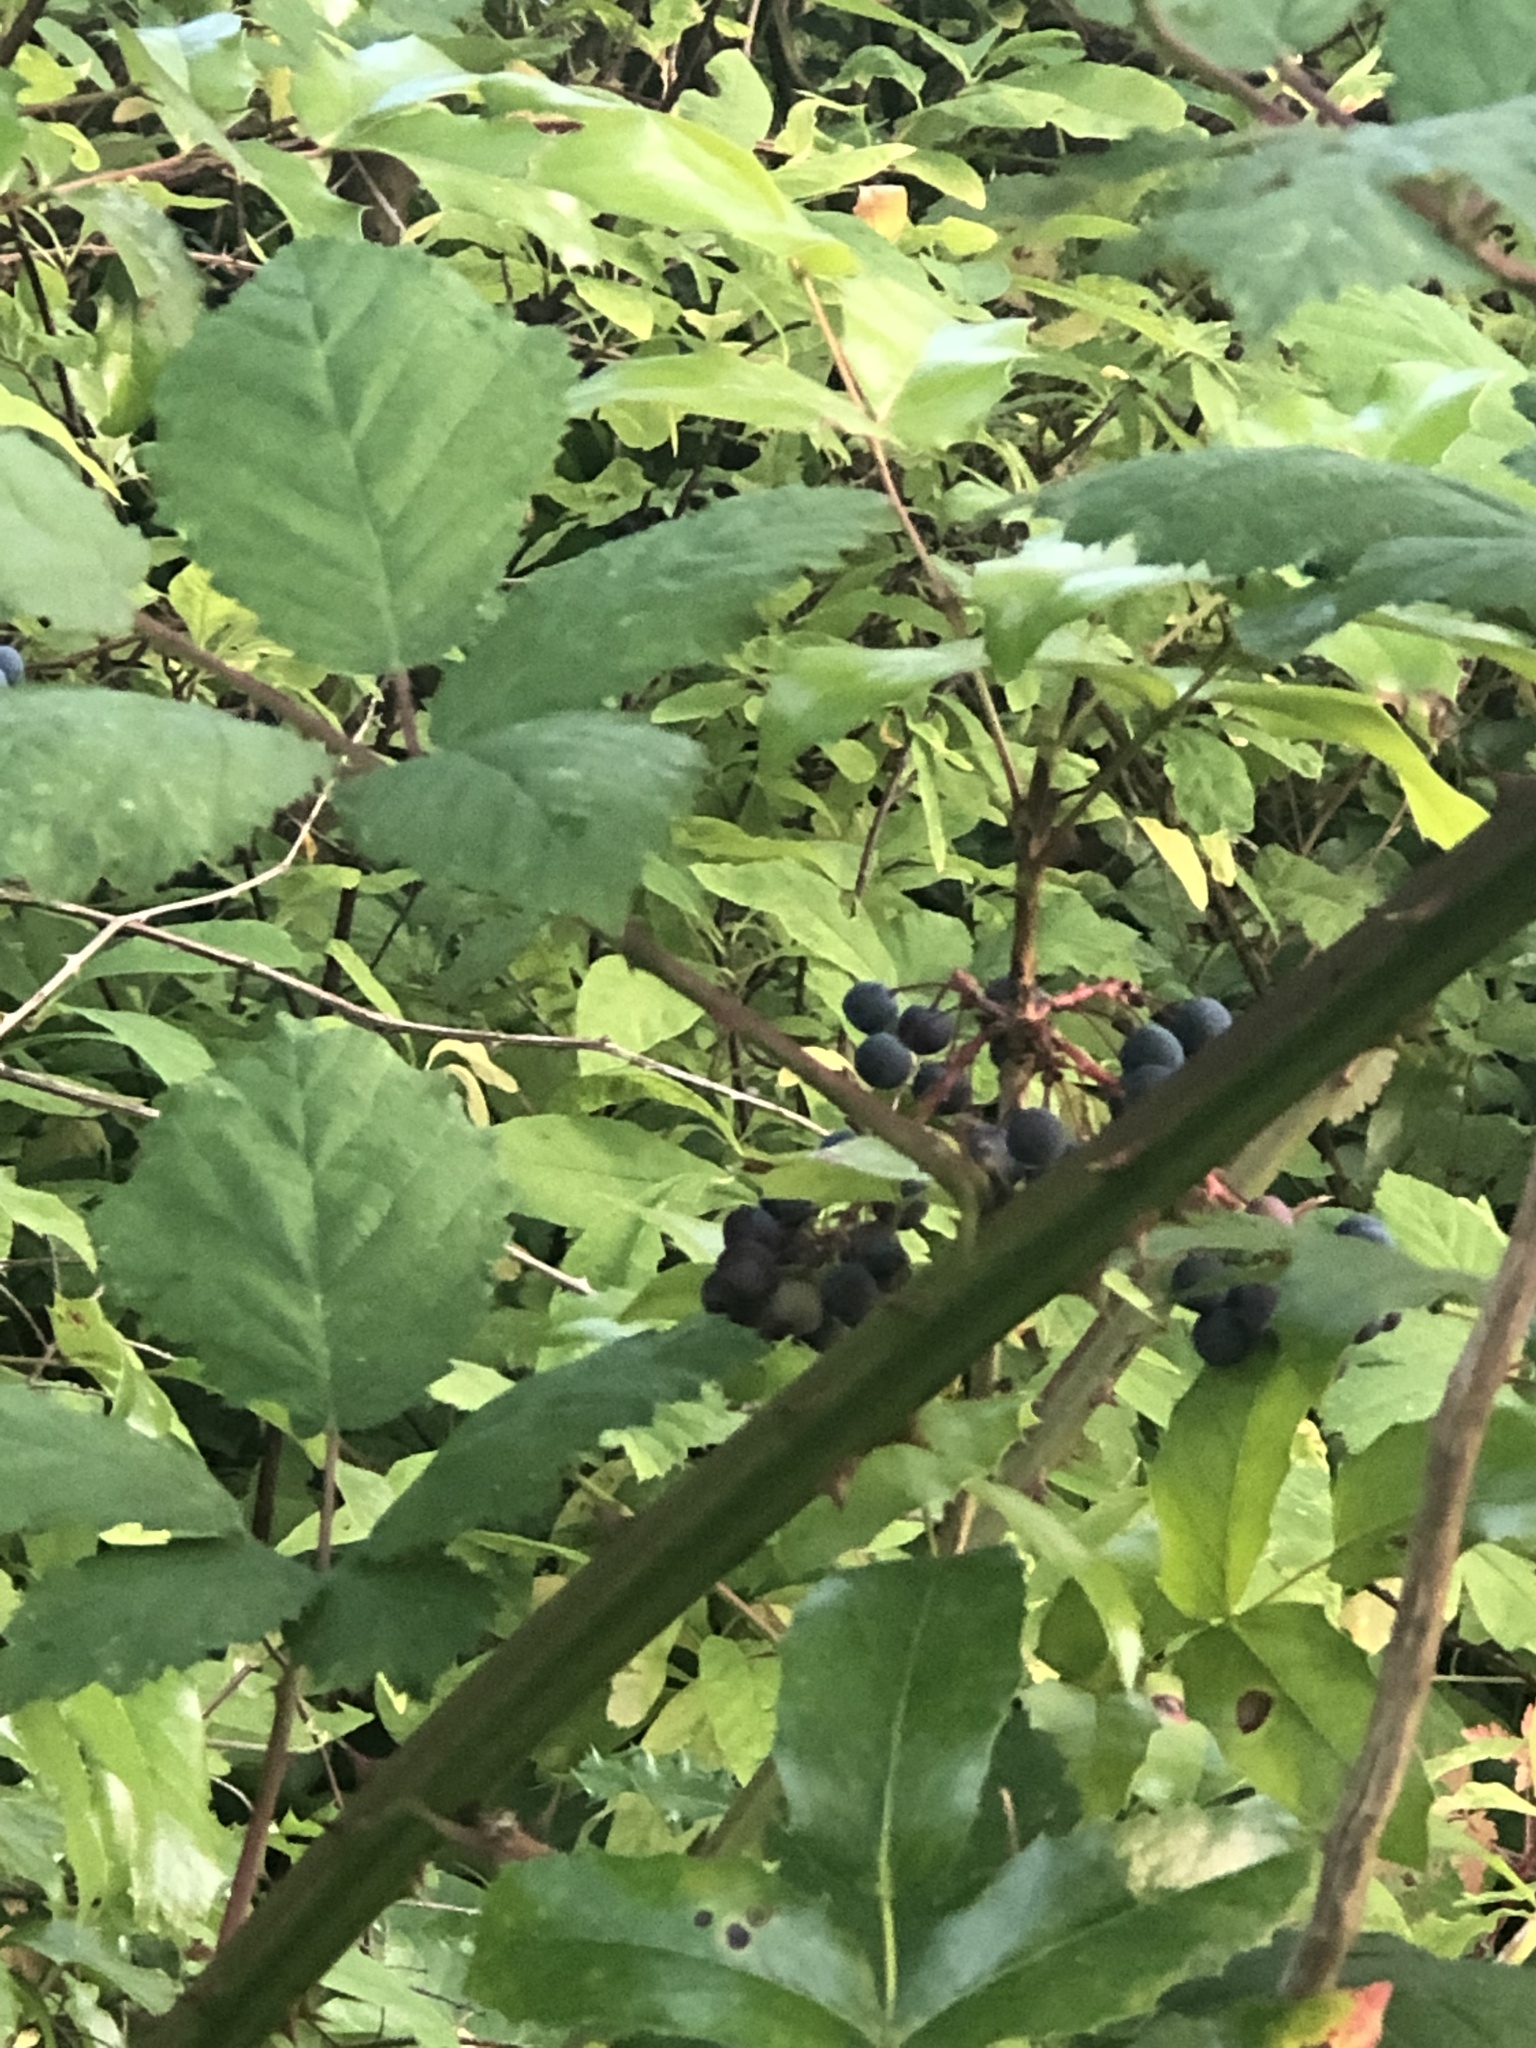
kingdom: Plantae
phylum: Tracheophyta
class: Magnoliopsida
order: Ranunculales
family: Berberidaceae
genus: Mahonia
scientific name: Mahonia aquifolium
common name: Oregon-grape
